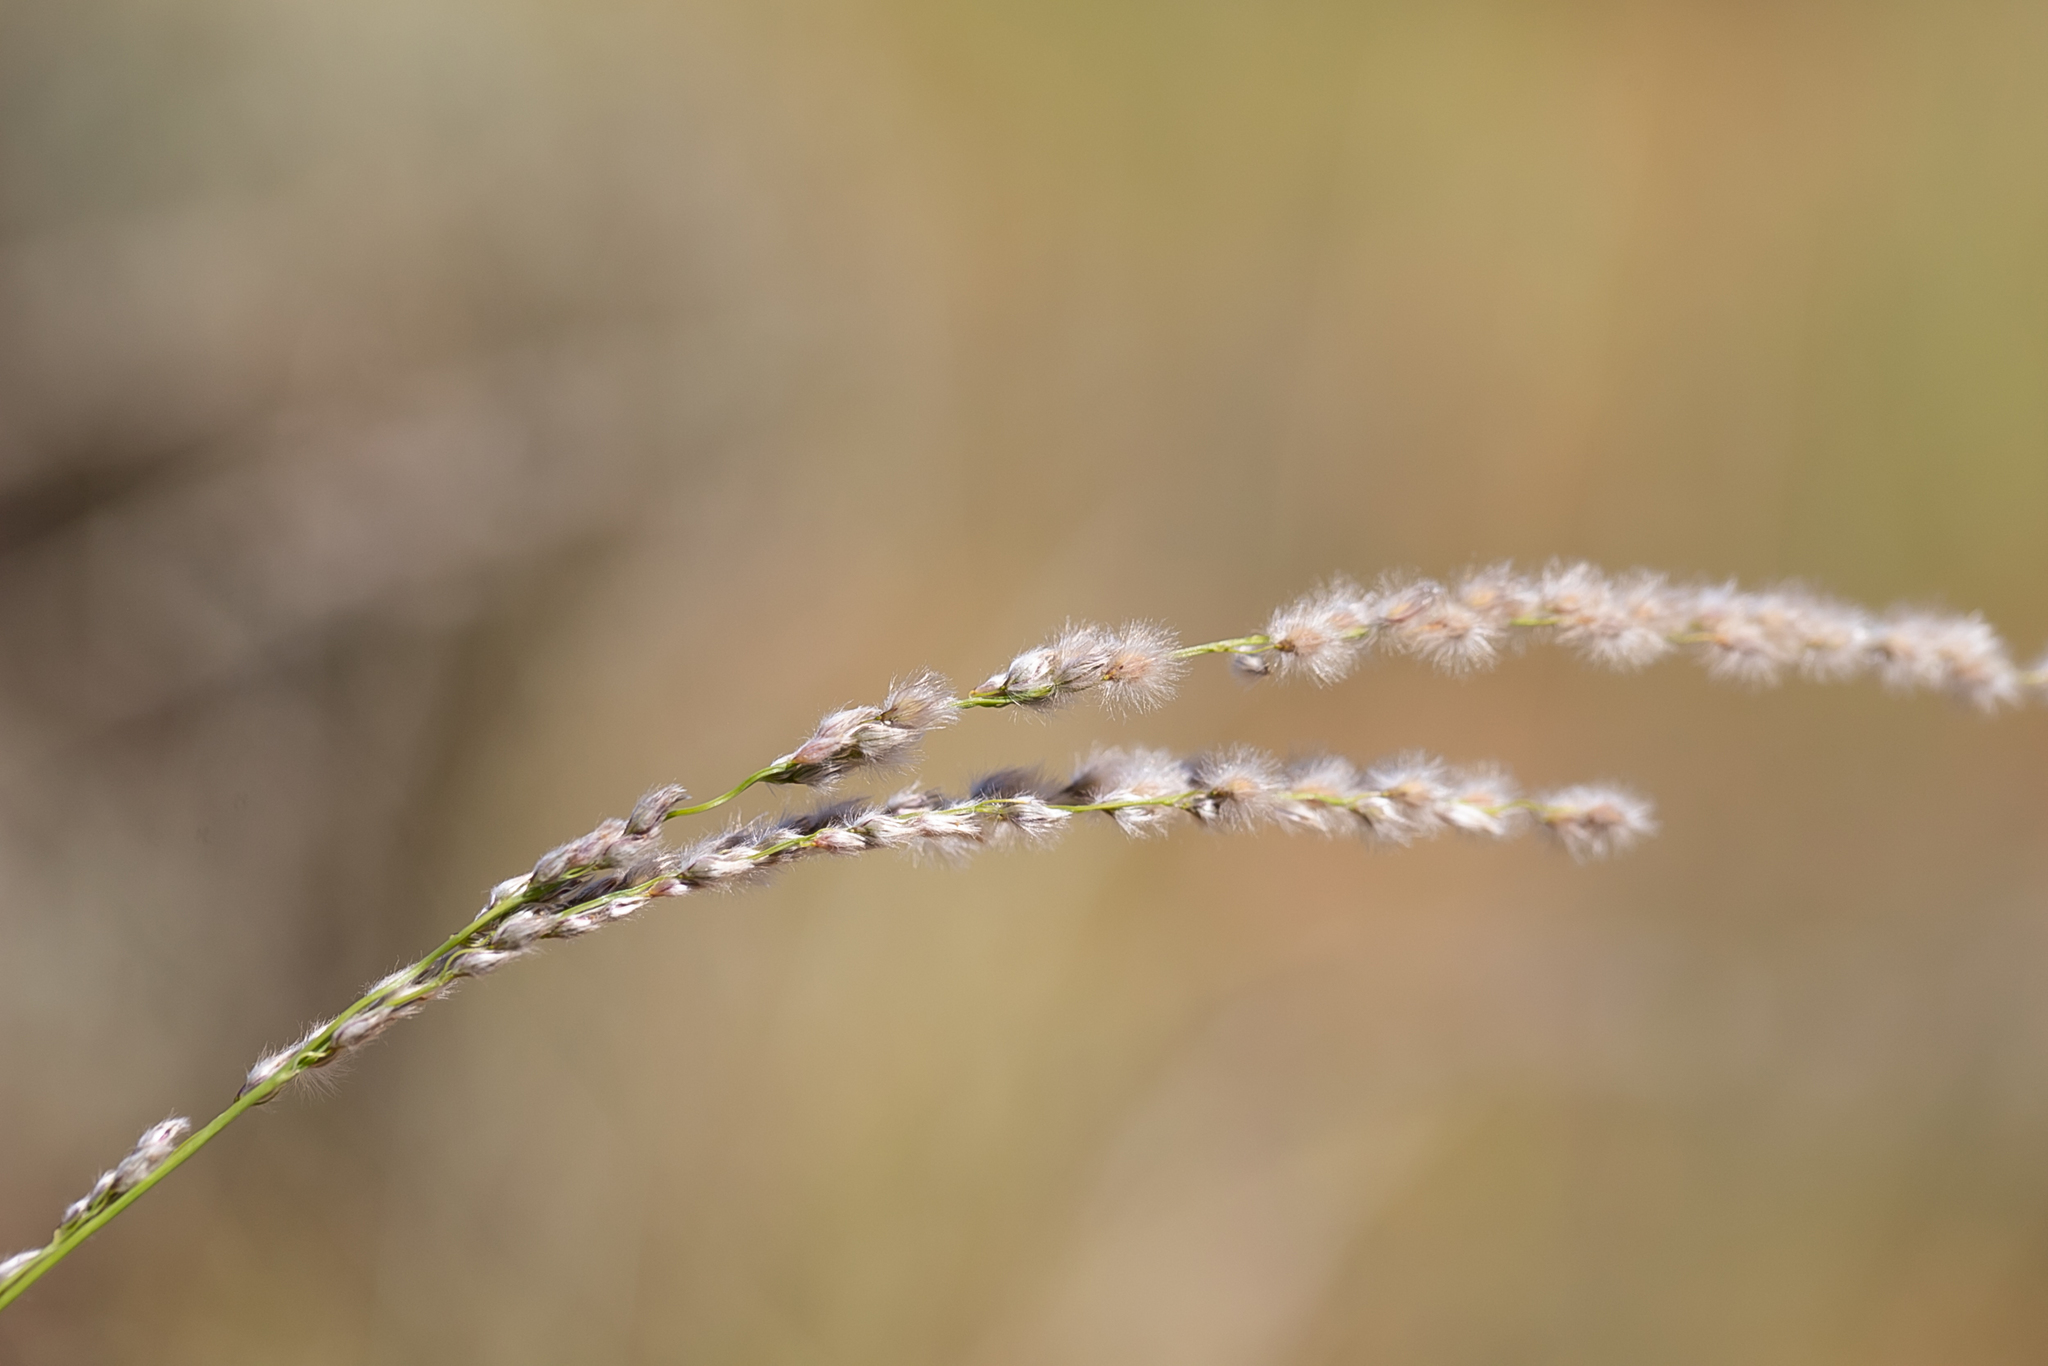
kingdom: Plantae
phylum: Tracheophyta
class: Liliopsida
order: Poales
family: Poaceae
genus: Digitaria
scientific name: Digitaria brownii
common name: Cotton grass
